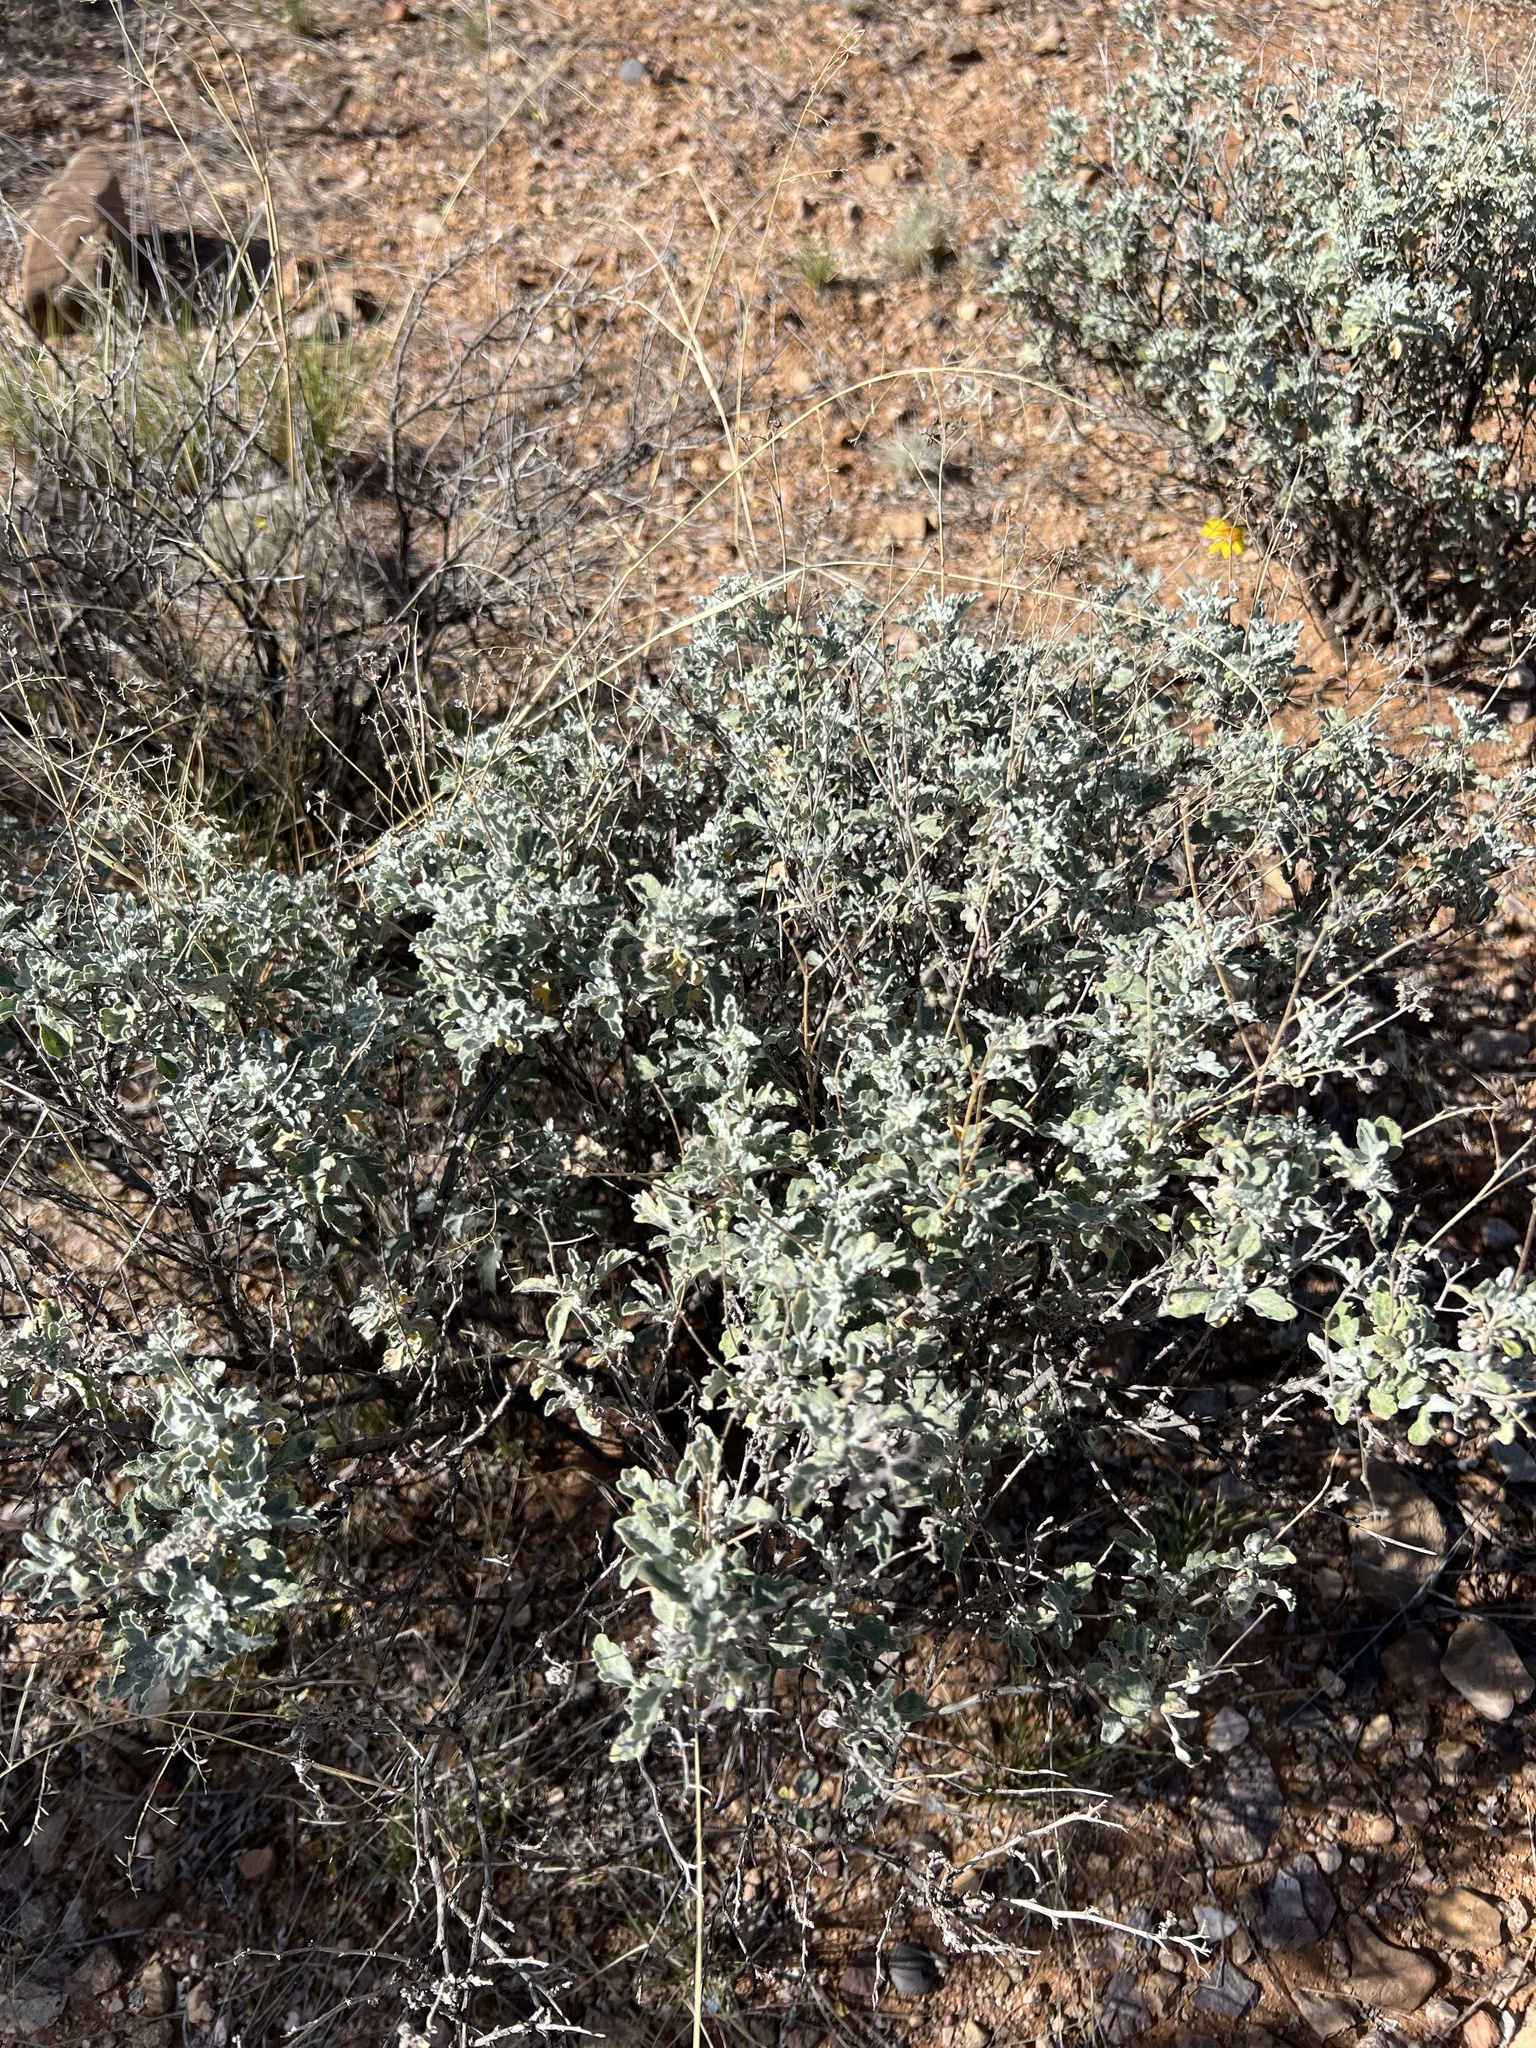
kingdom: Plantae
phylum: Tracheophyta
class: Magnoliopsida
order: Asterales
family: Asteraceae
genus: Parthenium
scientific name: Parthenium incanum
